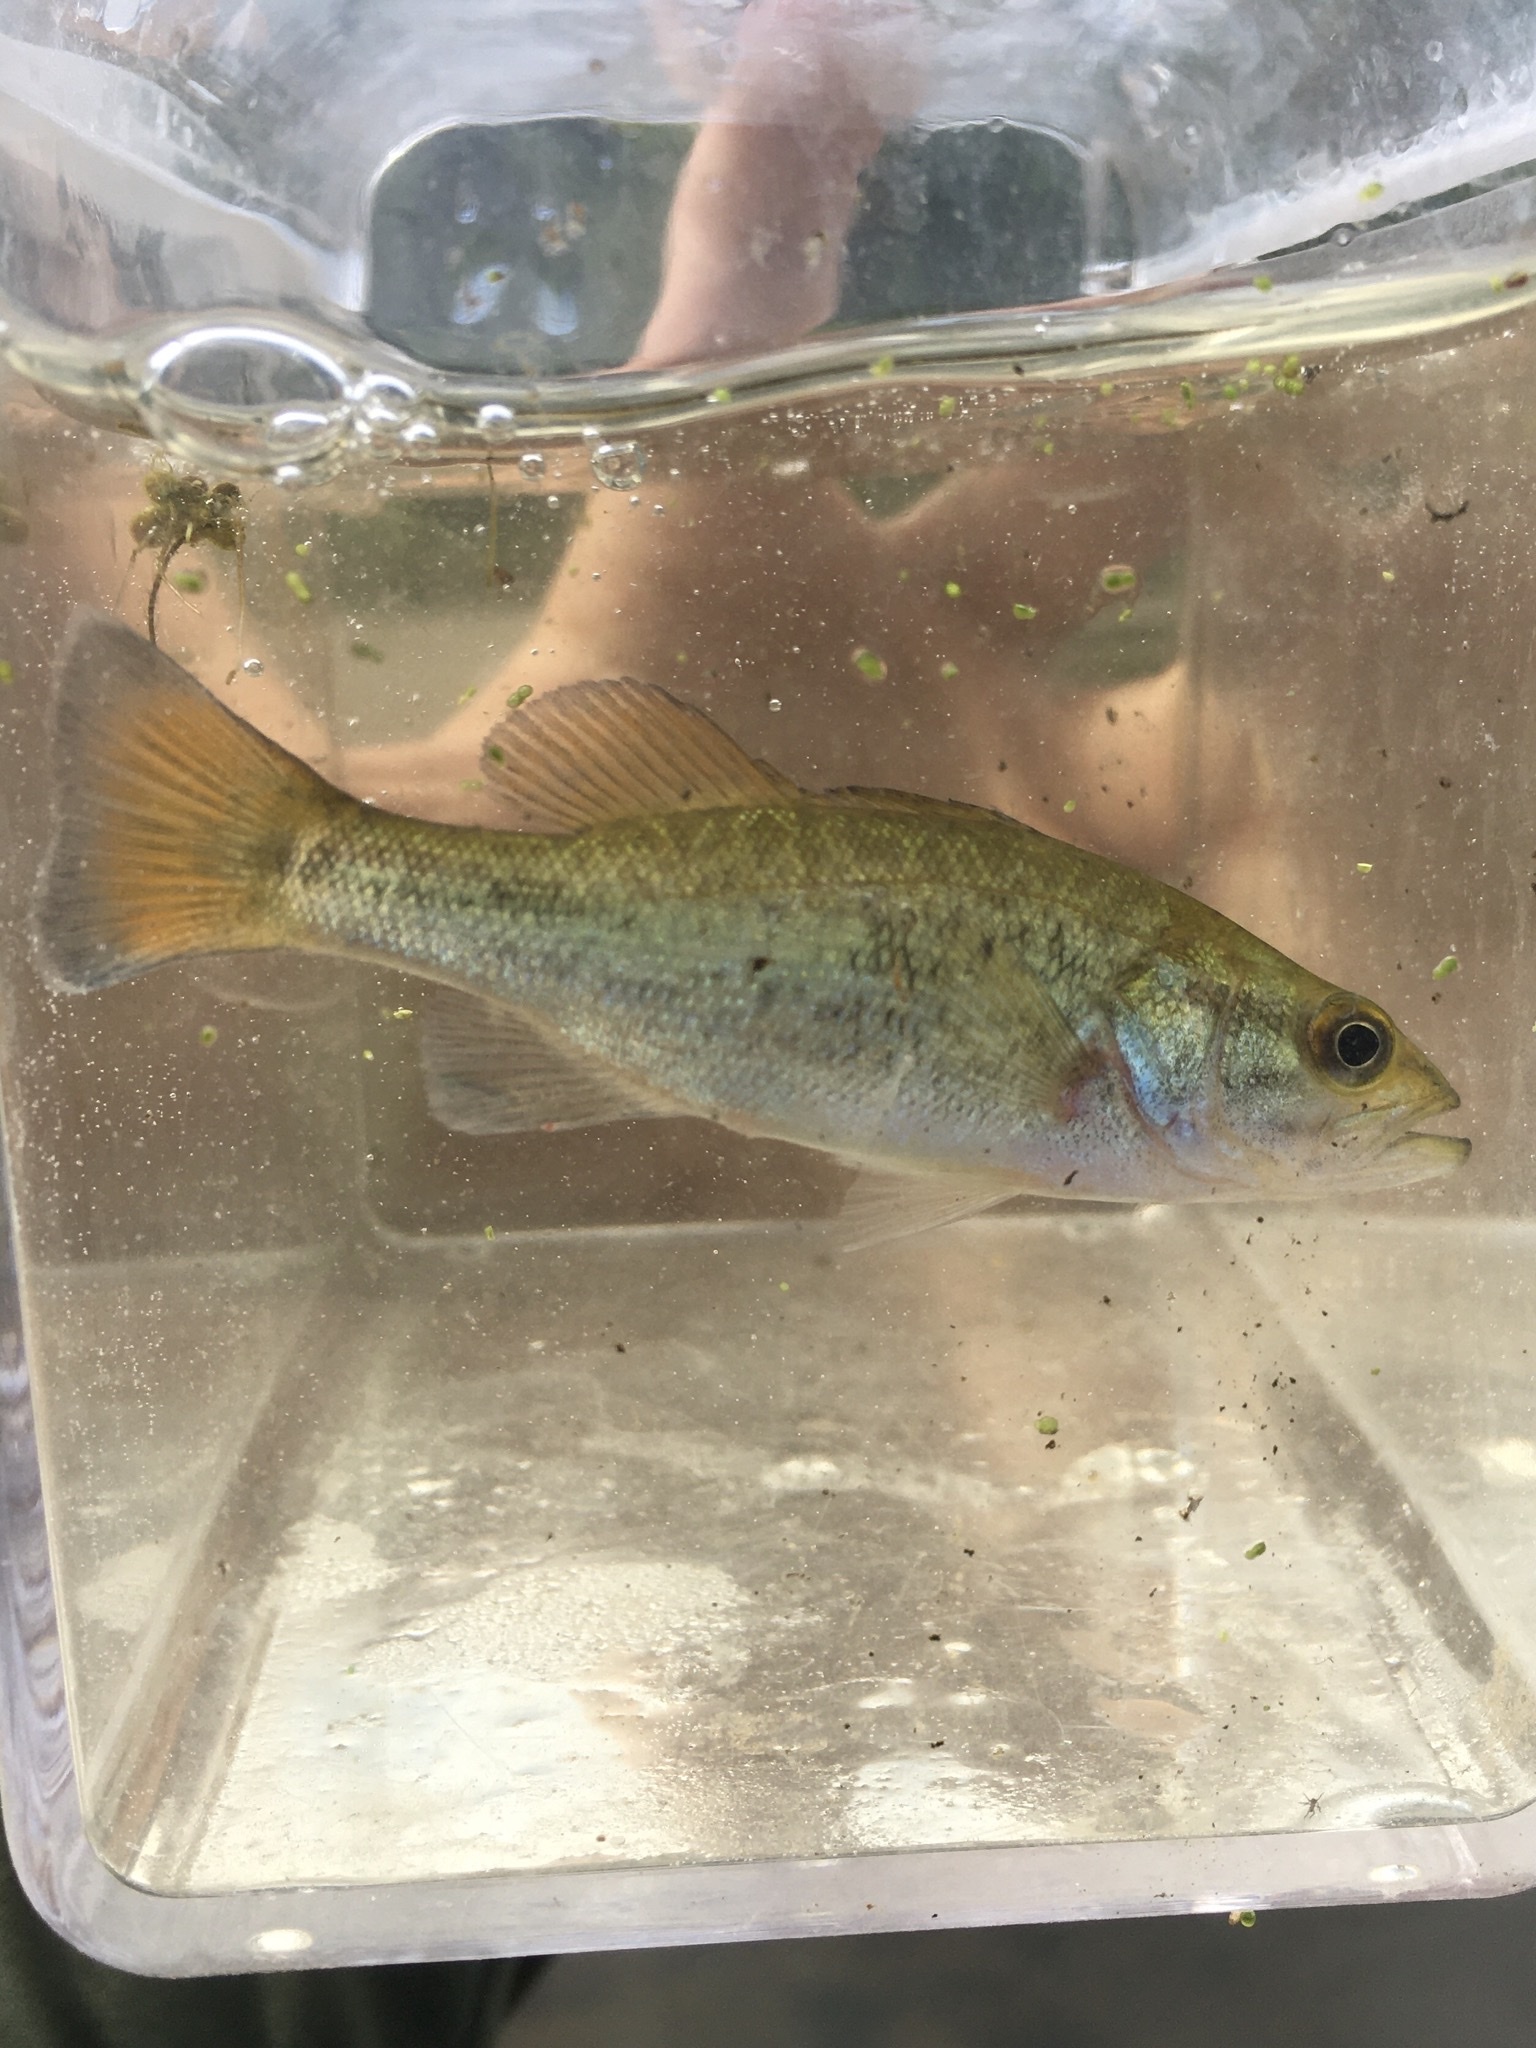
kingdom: Animalia
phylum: Chordata
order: Perciformes
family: Centrarchidae
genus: Micropterus
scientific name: Micropterus
